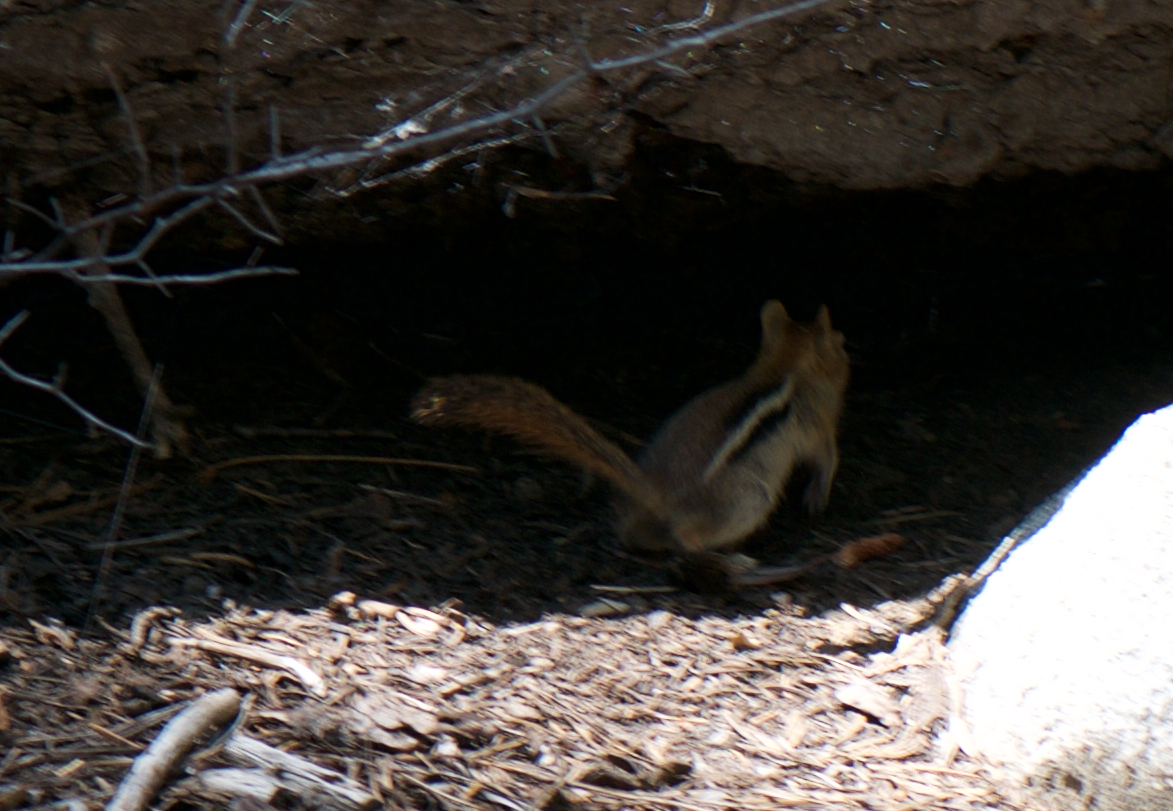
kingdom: Animalia
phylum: Chordata
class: Mammalia
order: Rodentia
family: Sciuridae
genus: Callospermophilus
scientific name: Callospermophilus lateralis
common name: Golden-mantled ground squirrel
